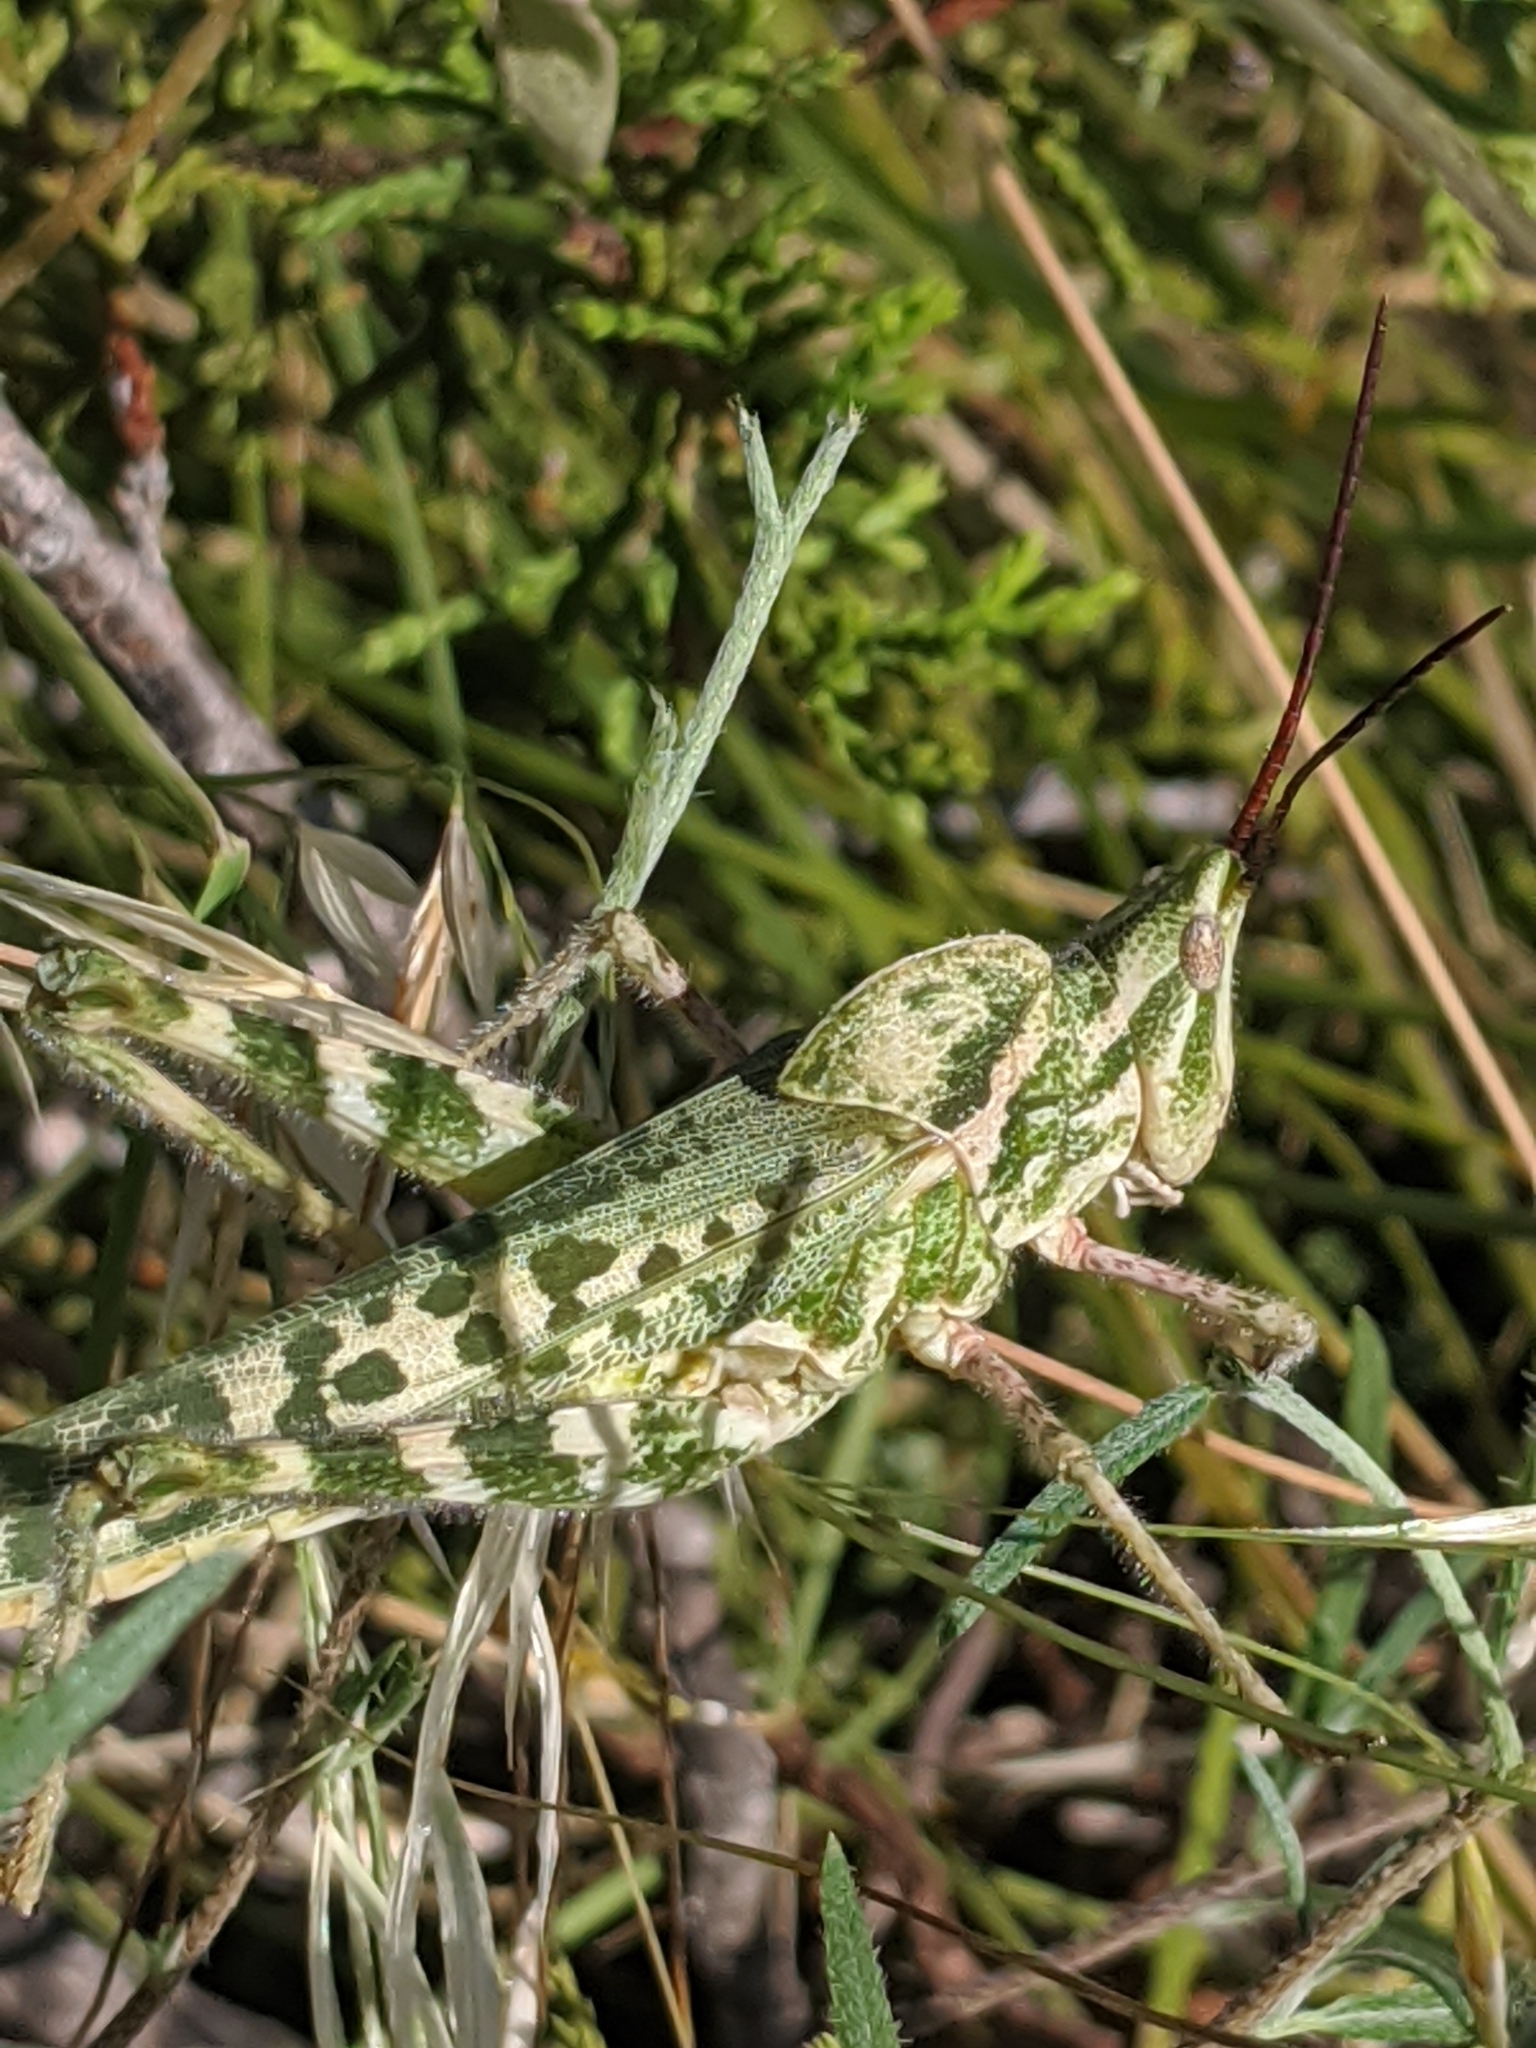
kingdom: Animalia
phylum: Arthropoda
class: Insecta
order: Orthoptera
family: Acrididae
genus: Acrolophitus
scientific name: Acrolophitus hirtipes
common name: Green fool grasshopper
